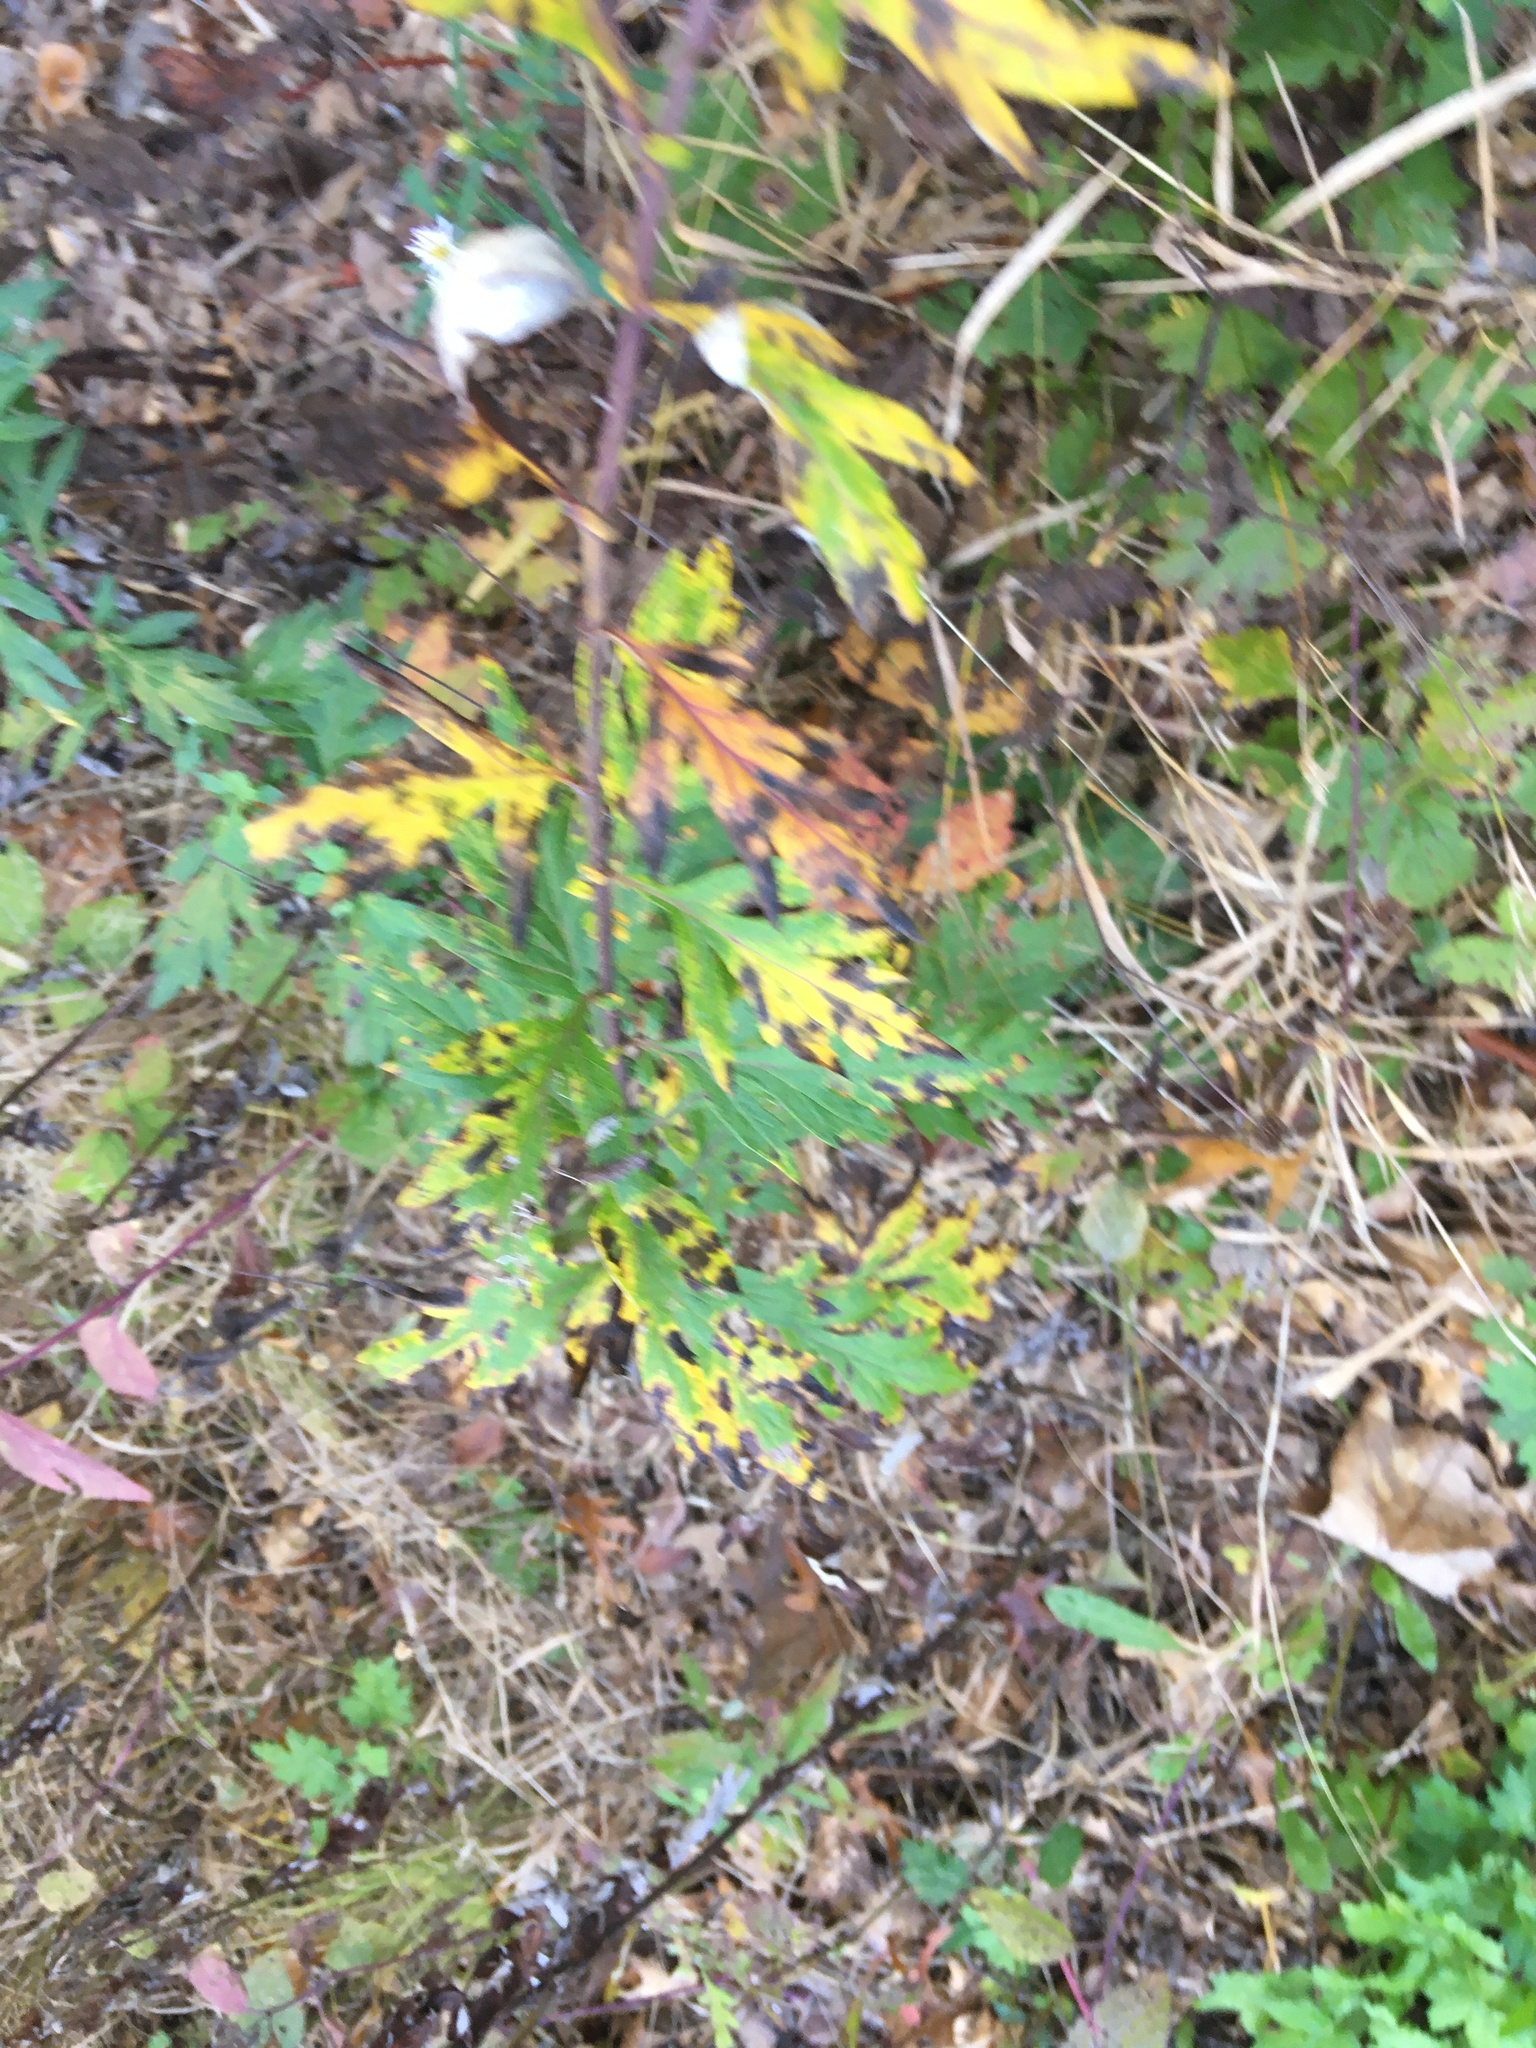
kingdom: Plantae
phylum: Tracheophyta
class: Magnoliopsida
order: Asterales
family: Asteraceae
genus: Artemisia
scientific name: Artemisia vulgaris
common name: Mugwort
